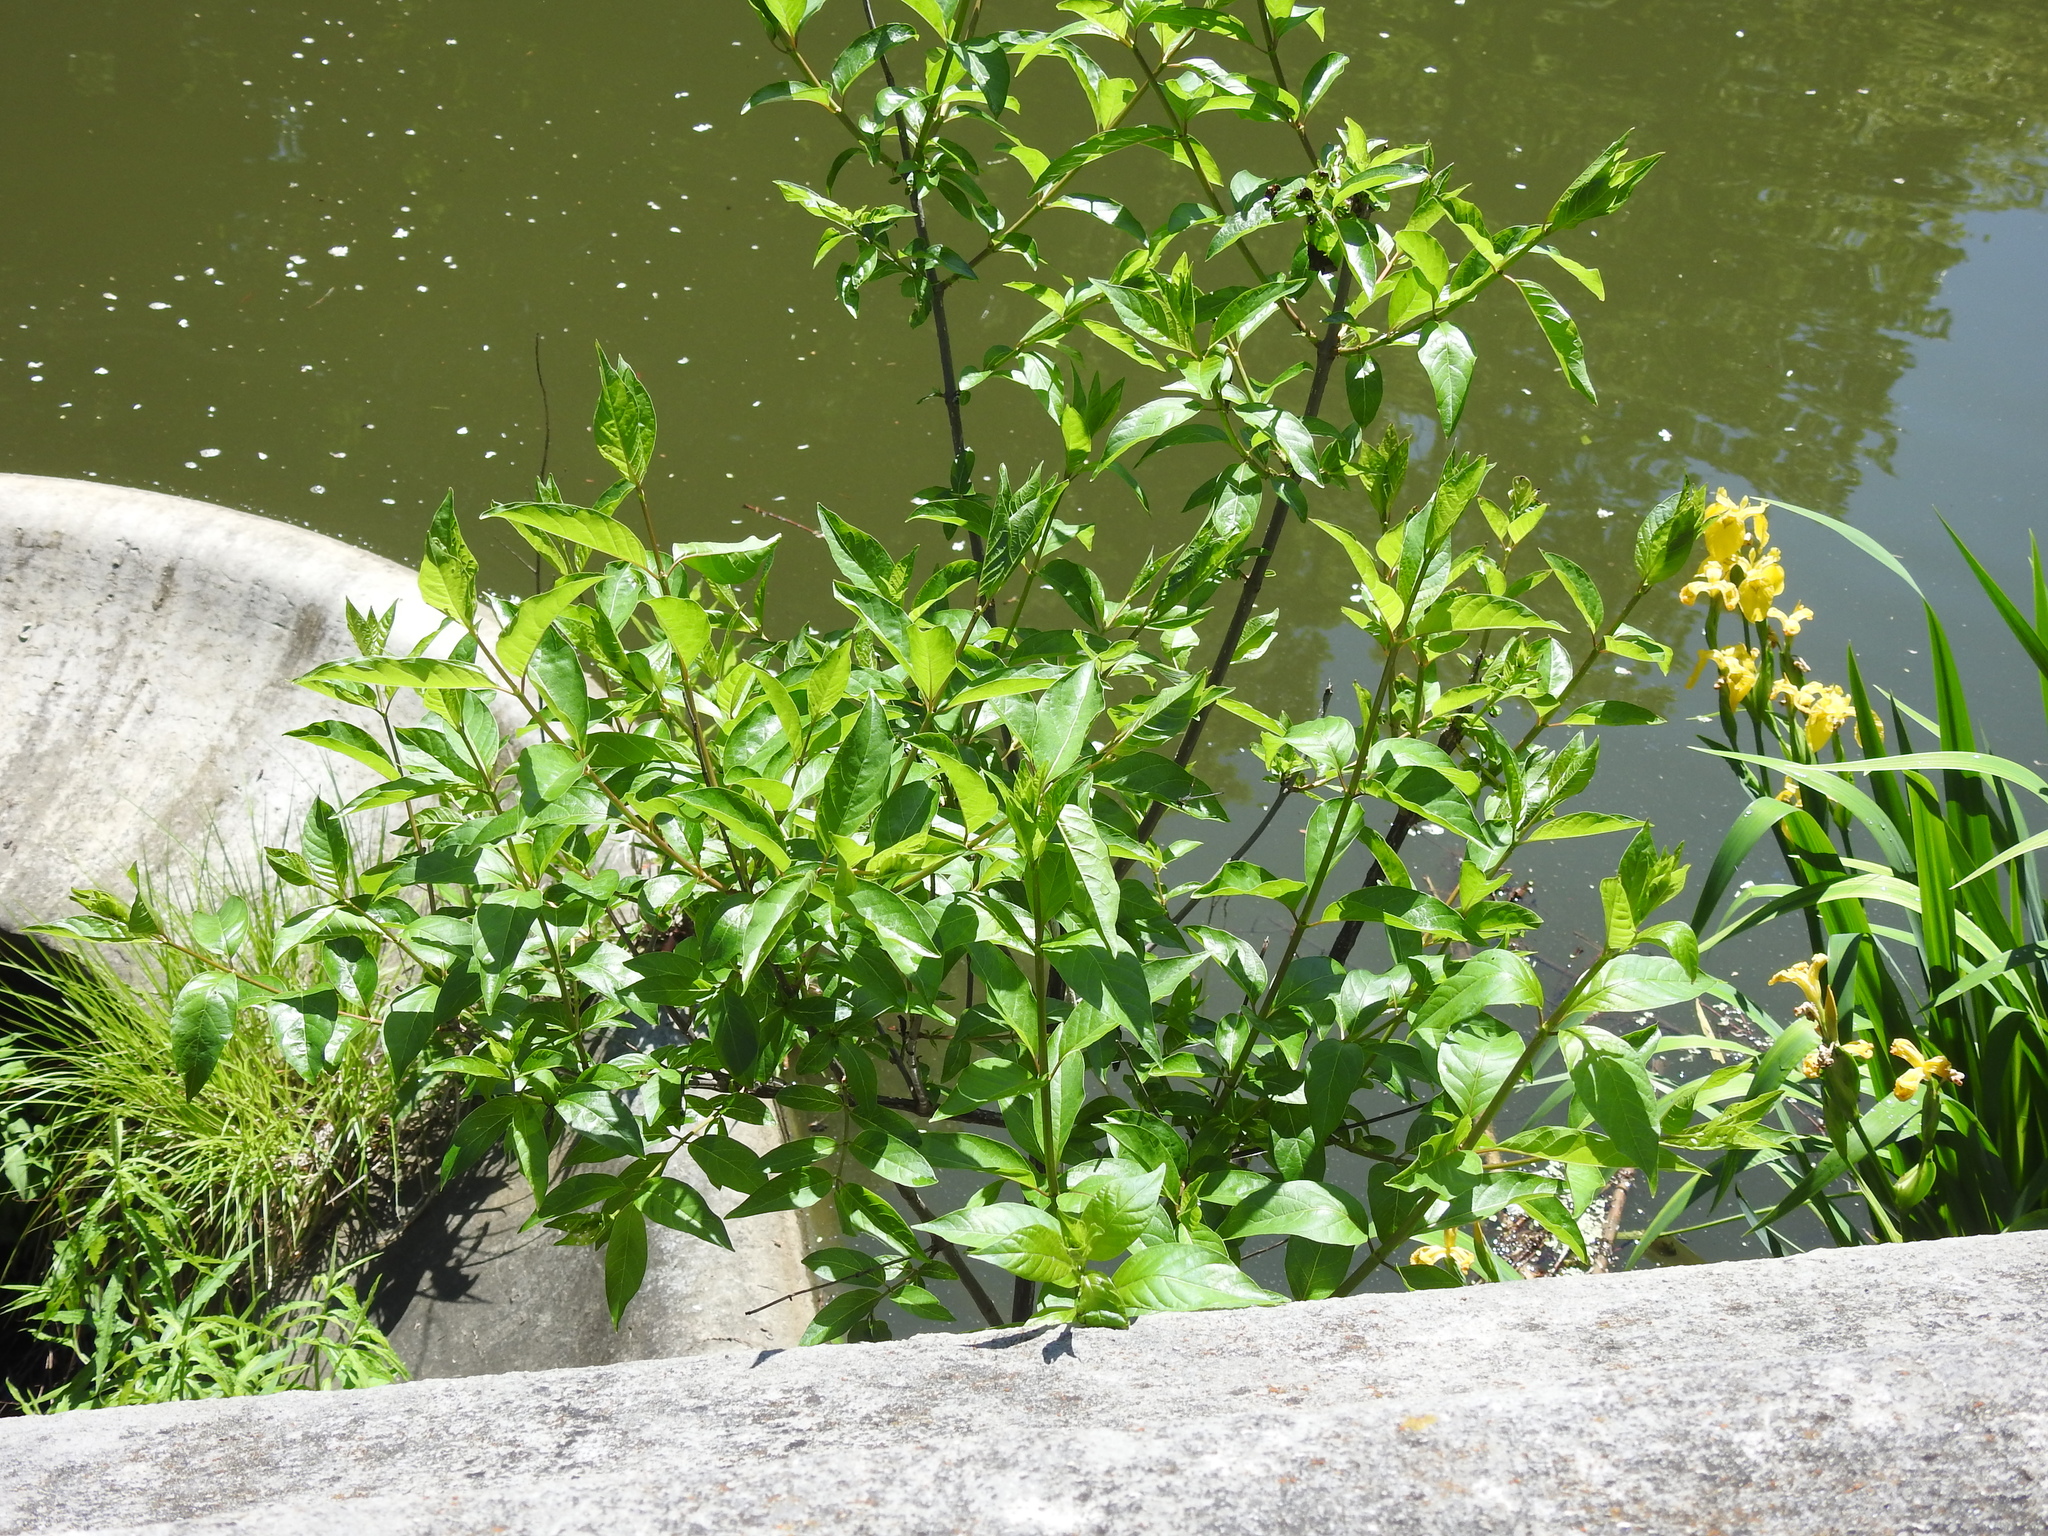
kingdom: Plantae
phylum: Tracheophyta
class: Magnoliopsida
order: Gentianales
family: Rubiaceae
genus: Cephalanthus
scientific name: Cephalanthus occidentalis
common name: Button-willow
